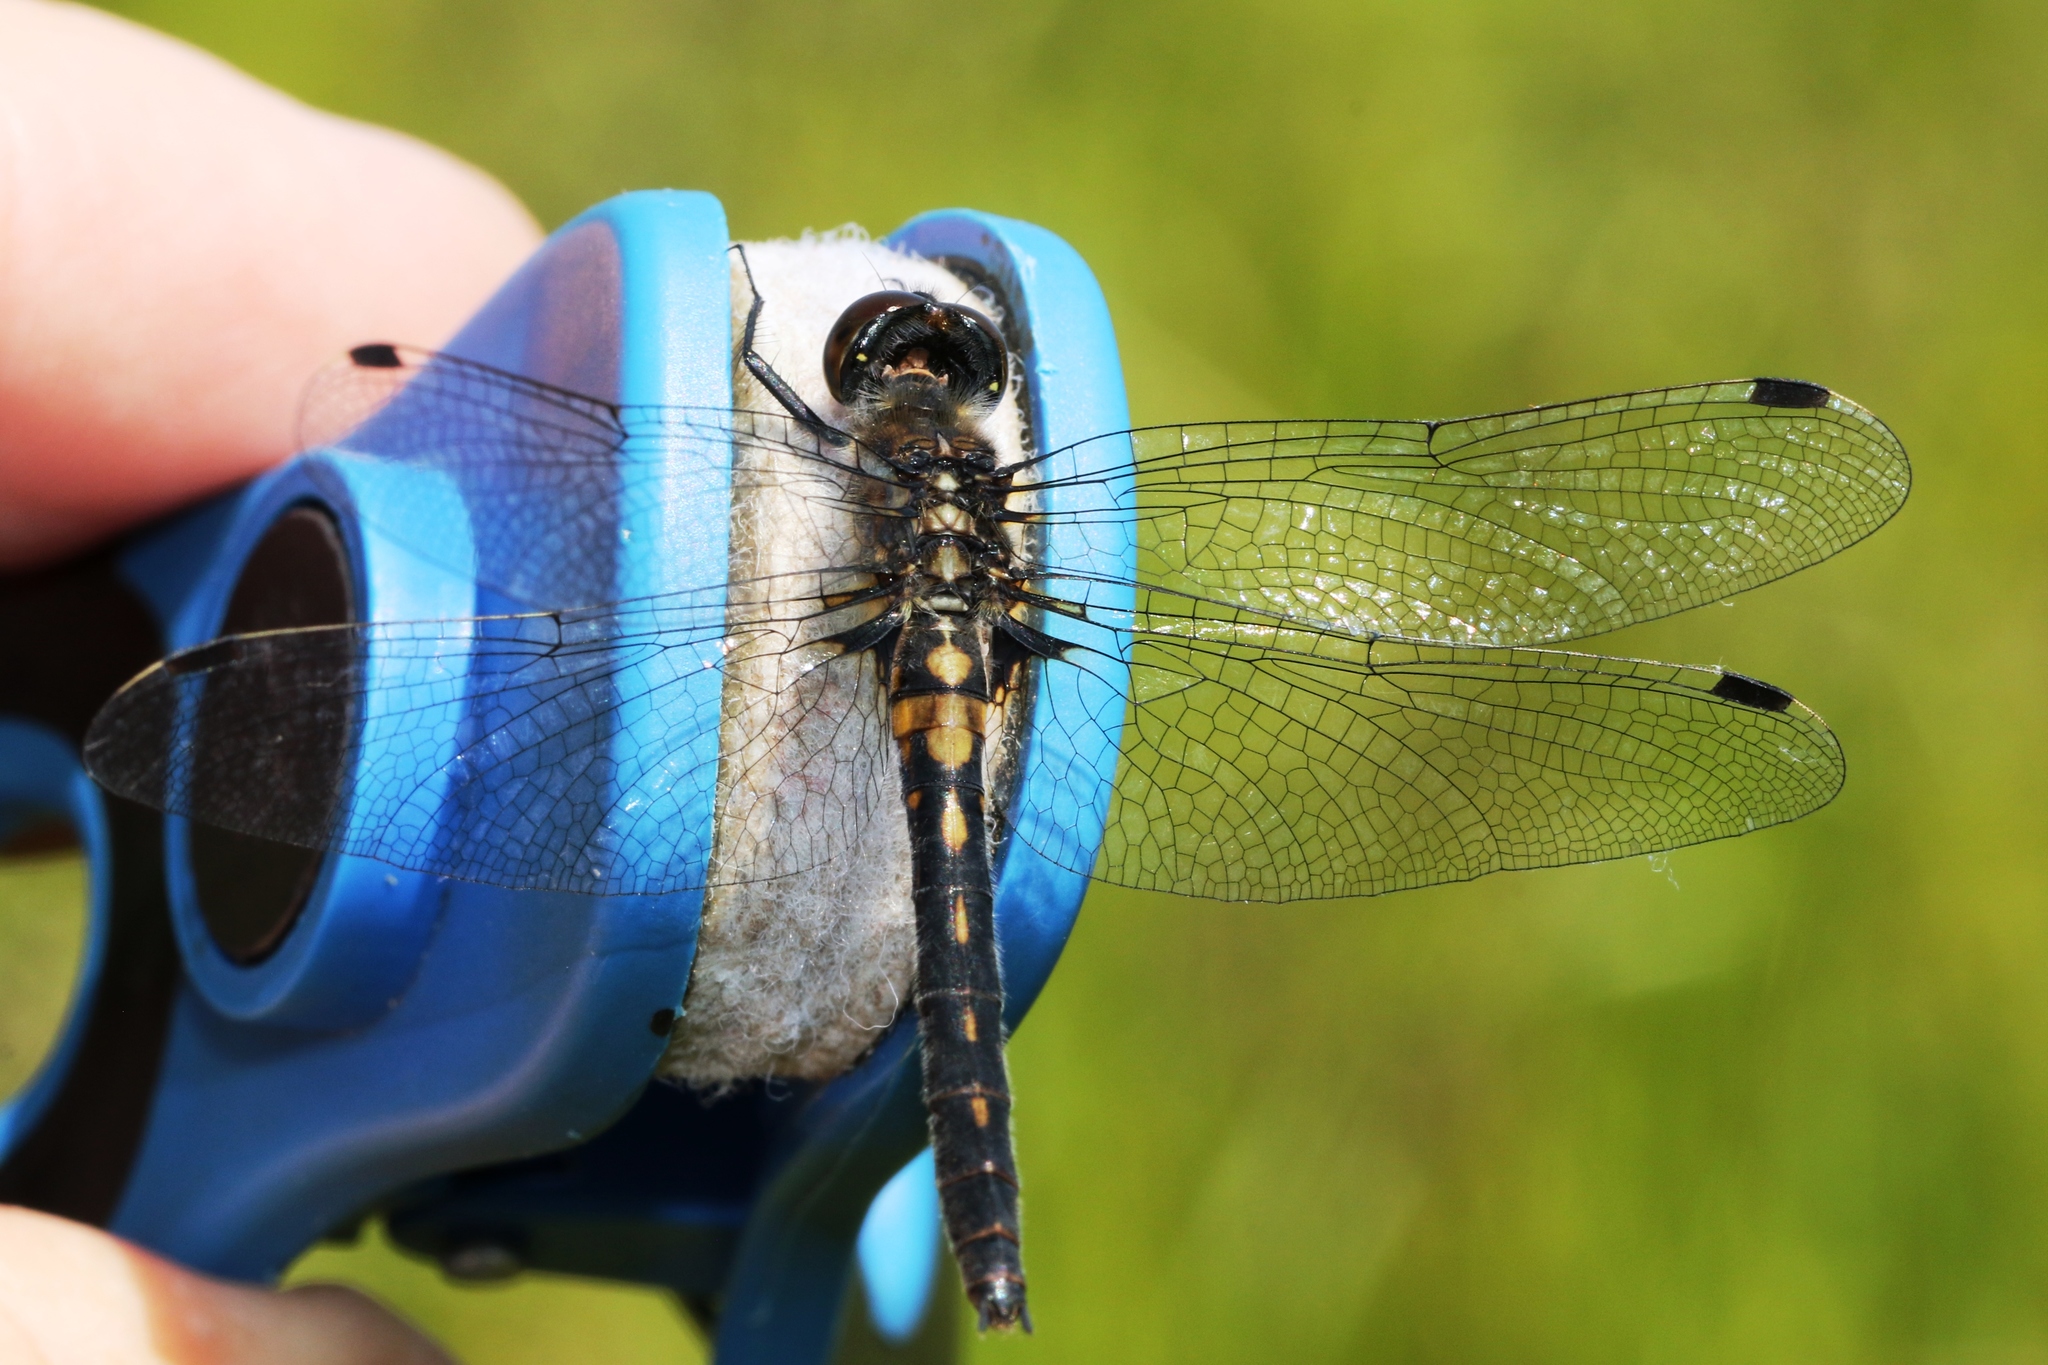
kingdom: Animalia
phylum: Arthropoda
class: Insecta
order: Odonata
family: Libellulidae
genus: Leucorrhinia
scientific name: Leucorrhinia proxima
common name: Belted whiteface
